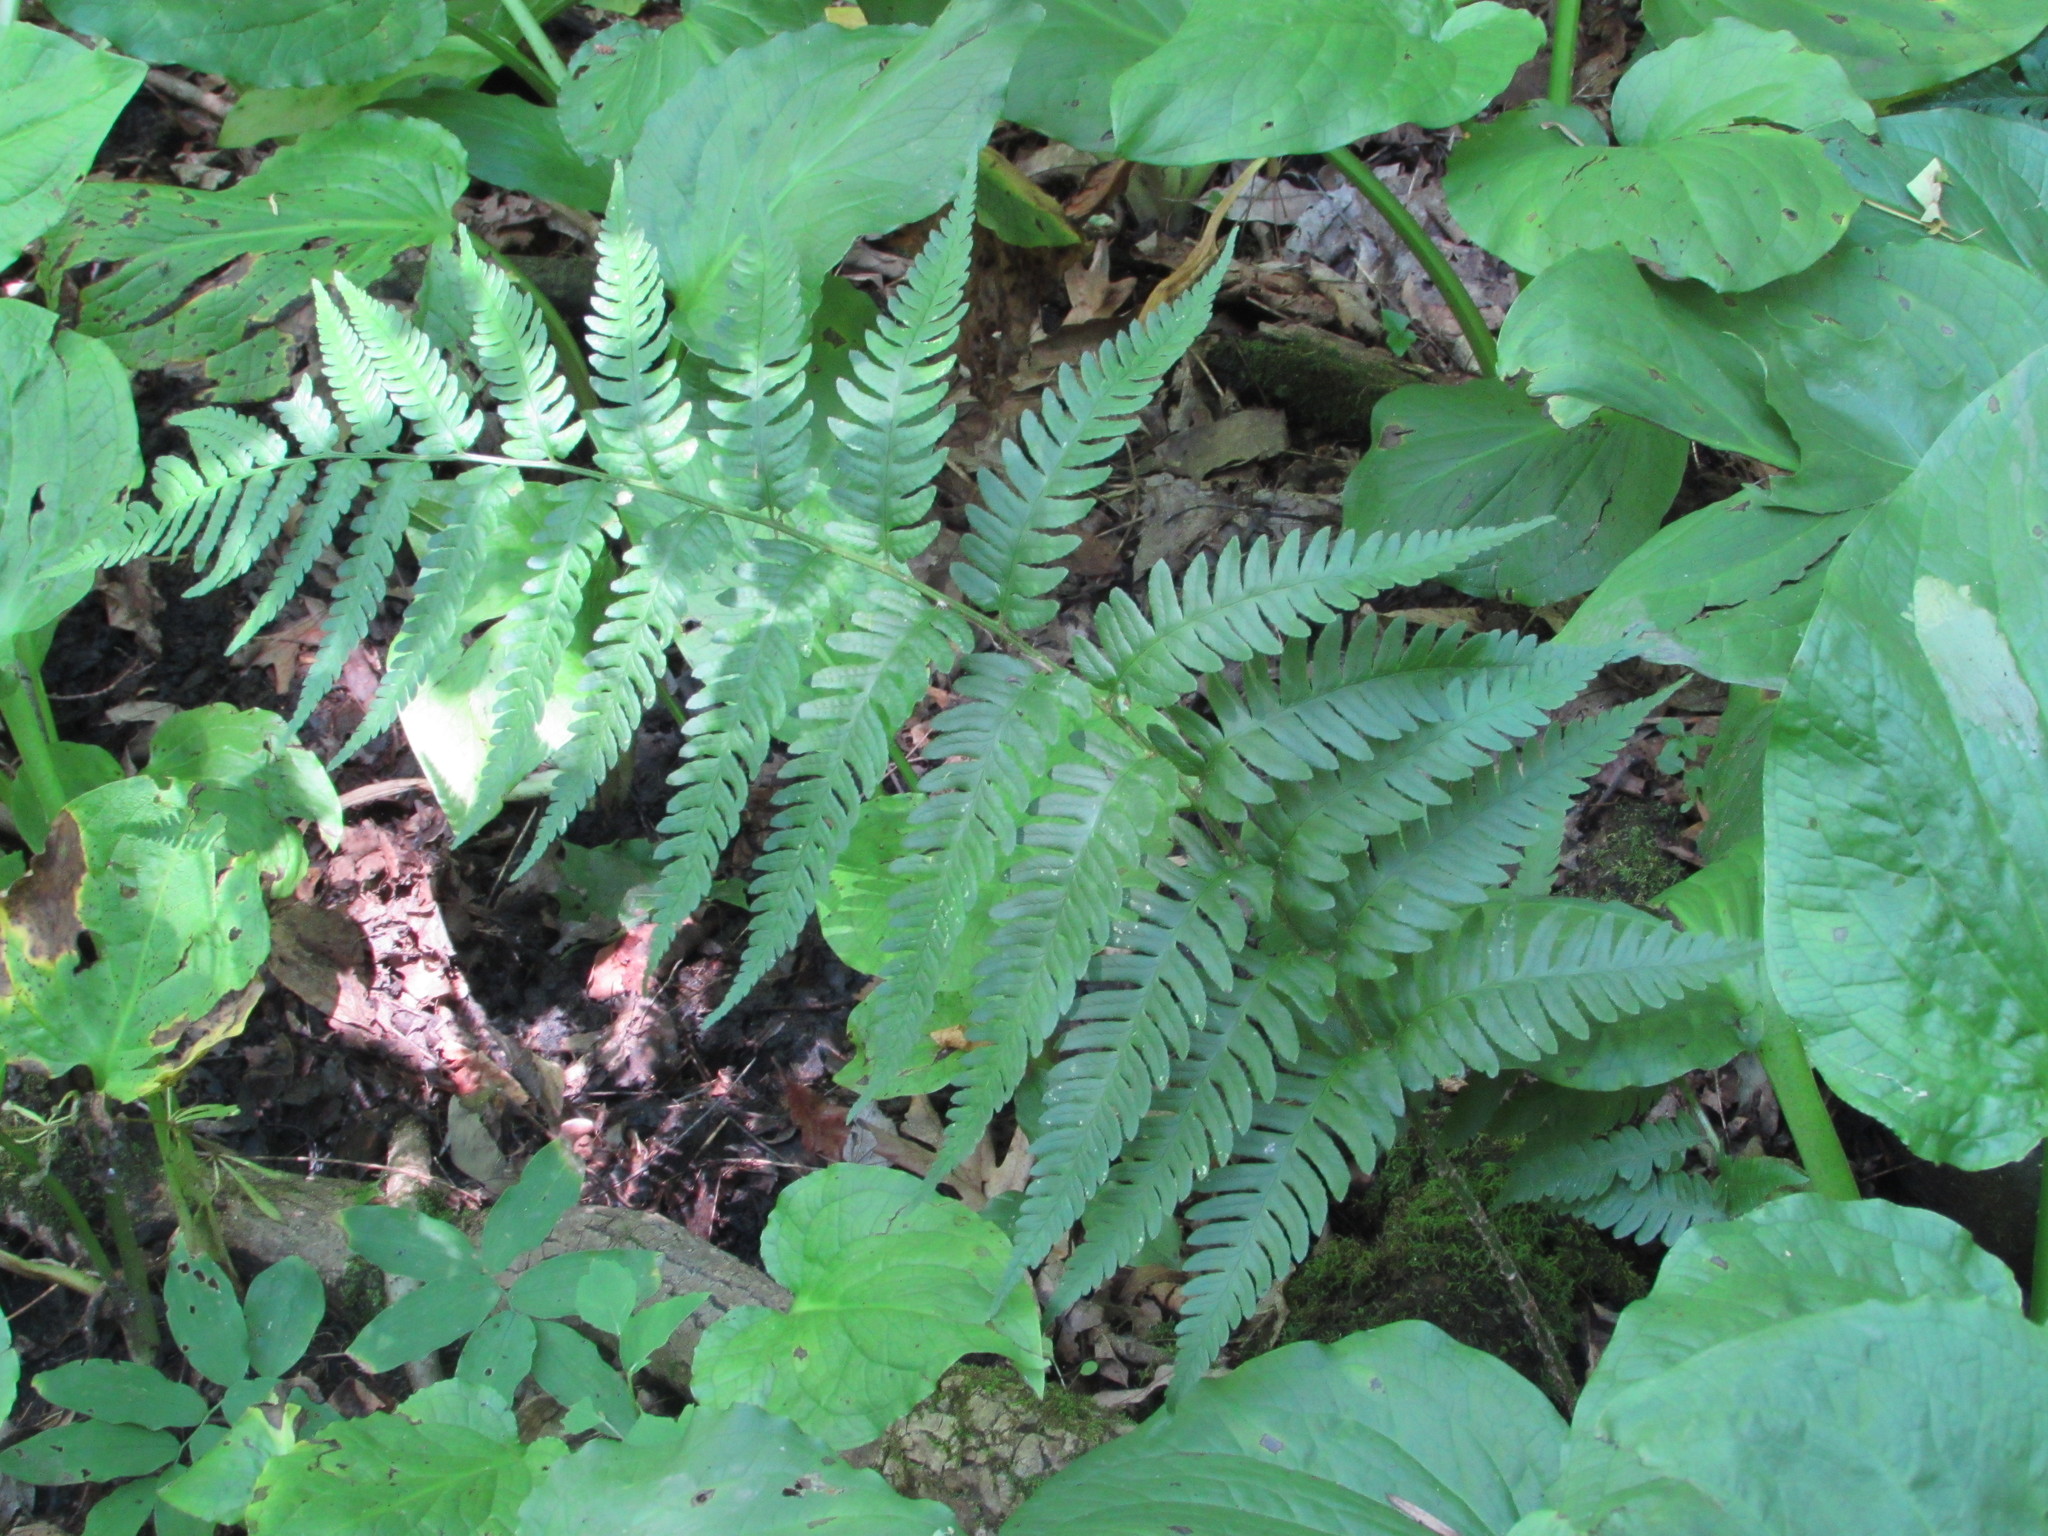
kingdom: Plantae
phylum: Tracheophyta
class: Polypodiopsida
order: Polypodiales
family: Dryopteridaceae
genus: Dryopteris
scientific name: Dryopteris celsa
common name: Log fern
